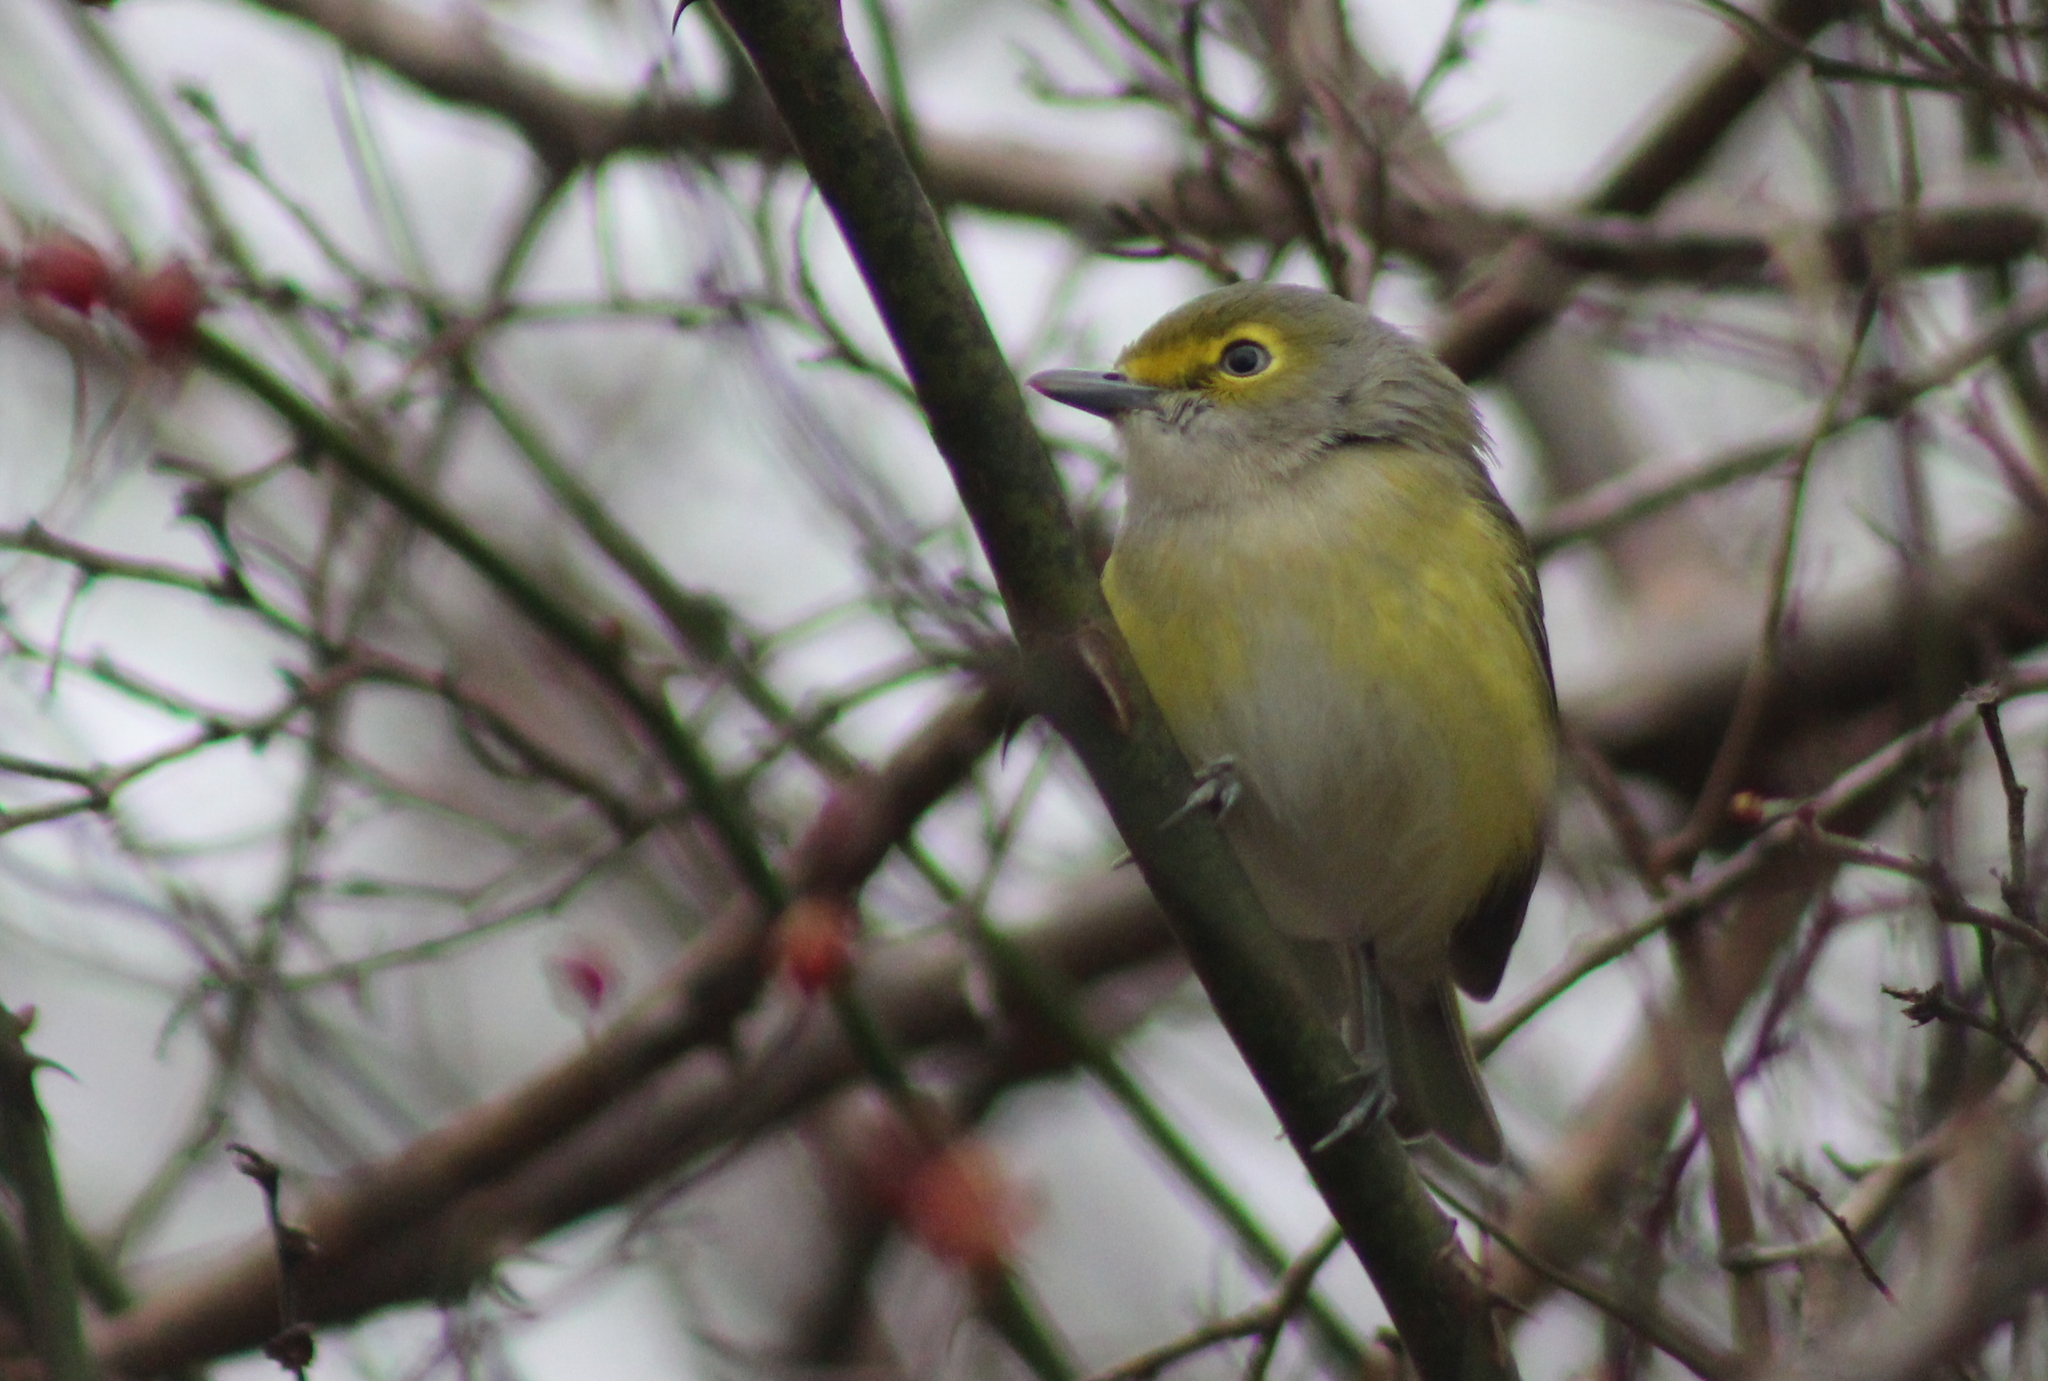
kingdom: Animalia
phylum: Chordata
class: Aves
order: Passeriformes
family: Vireonidae
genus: Vireo
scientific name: Vireo griseus
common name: White-eyed vireo
